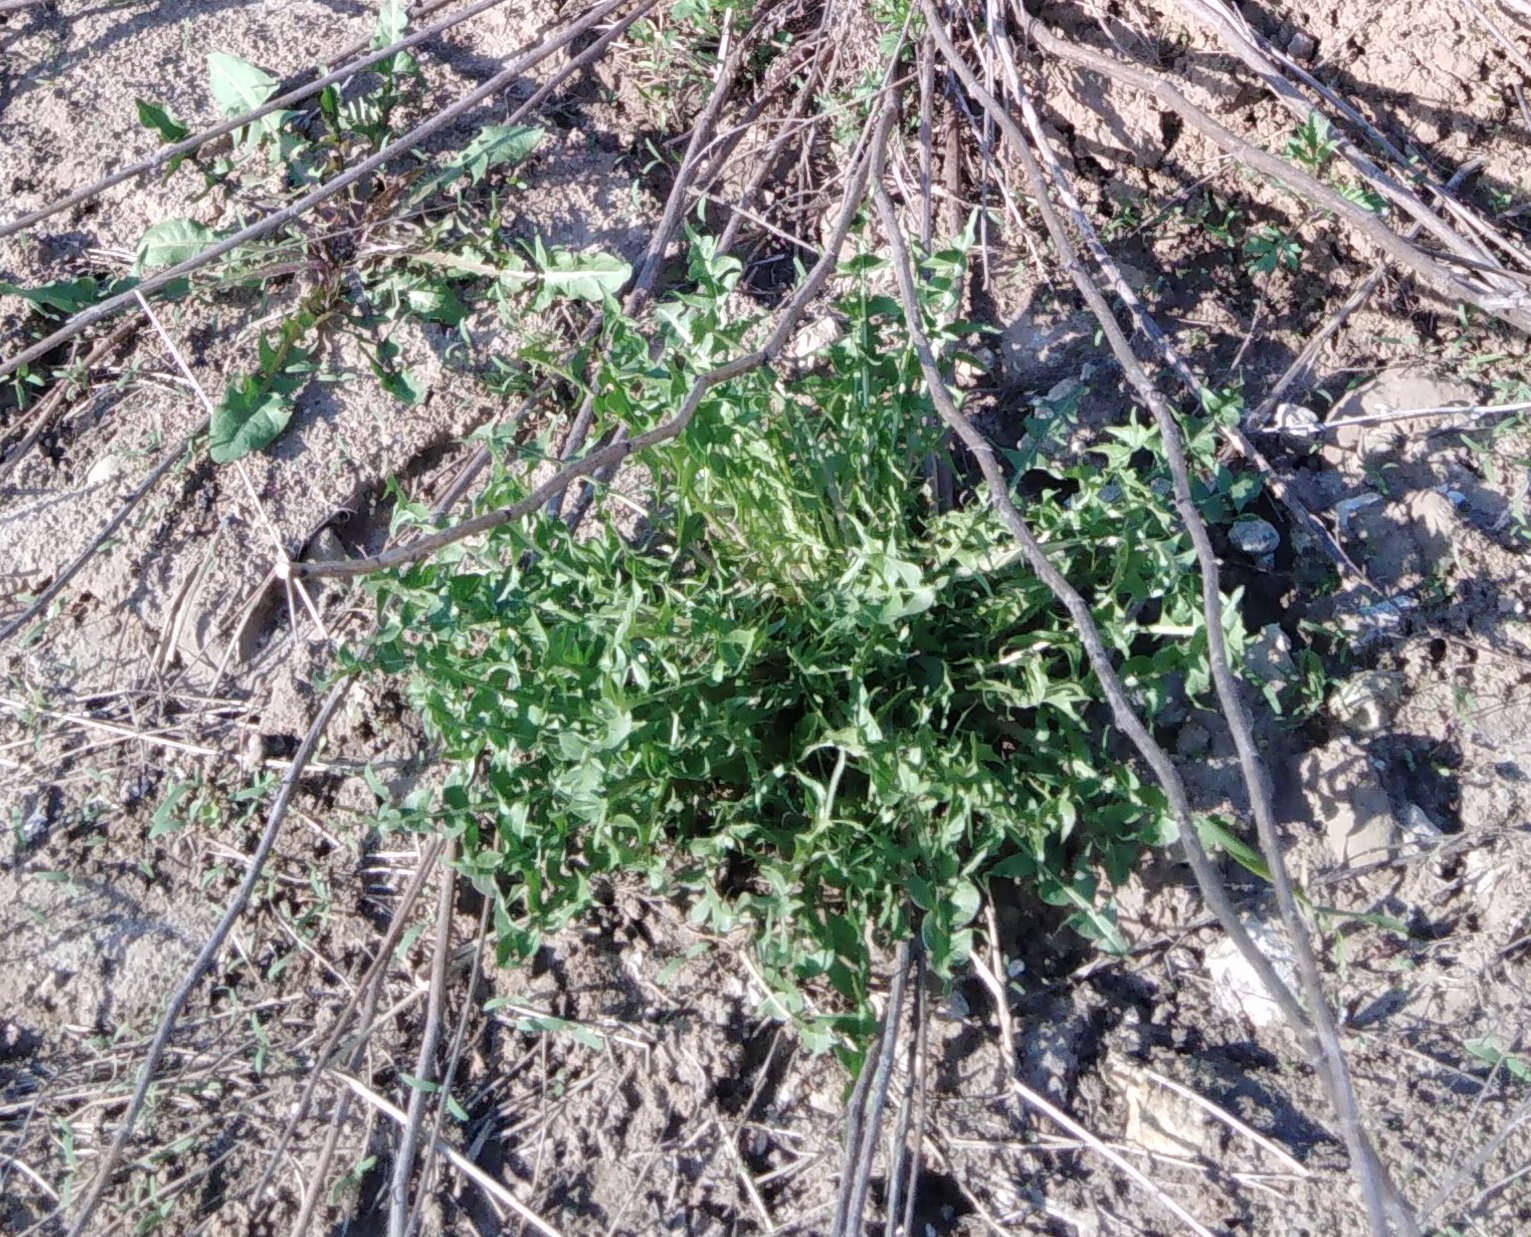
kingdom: Plantae
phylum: Tracheophyta
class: Magnoliopsida
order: Asterales
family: Asteraceae
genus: Taraxacum
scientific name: Taraxacum officinale
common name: Common dandelion
